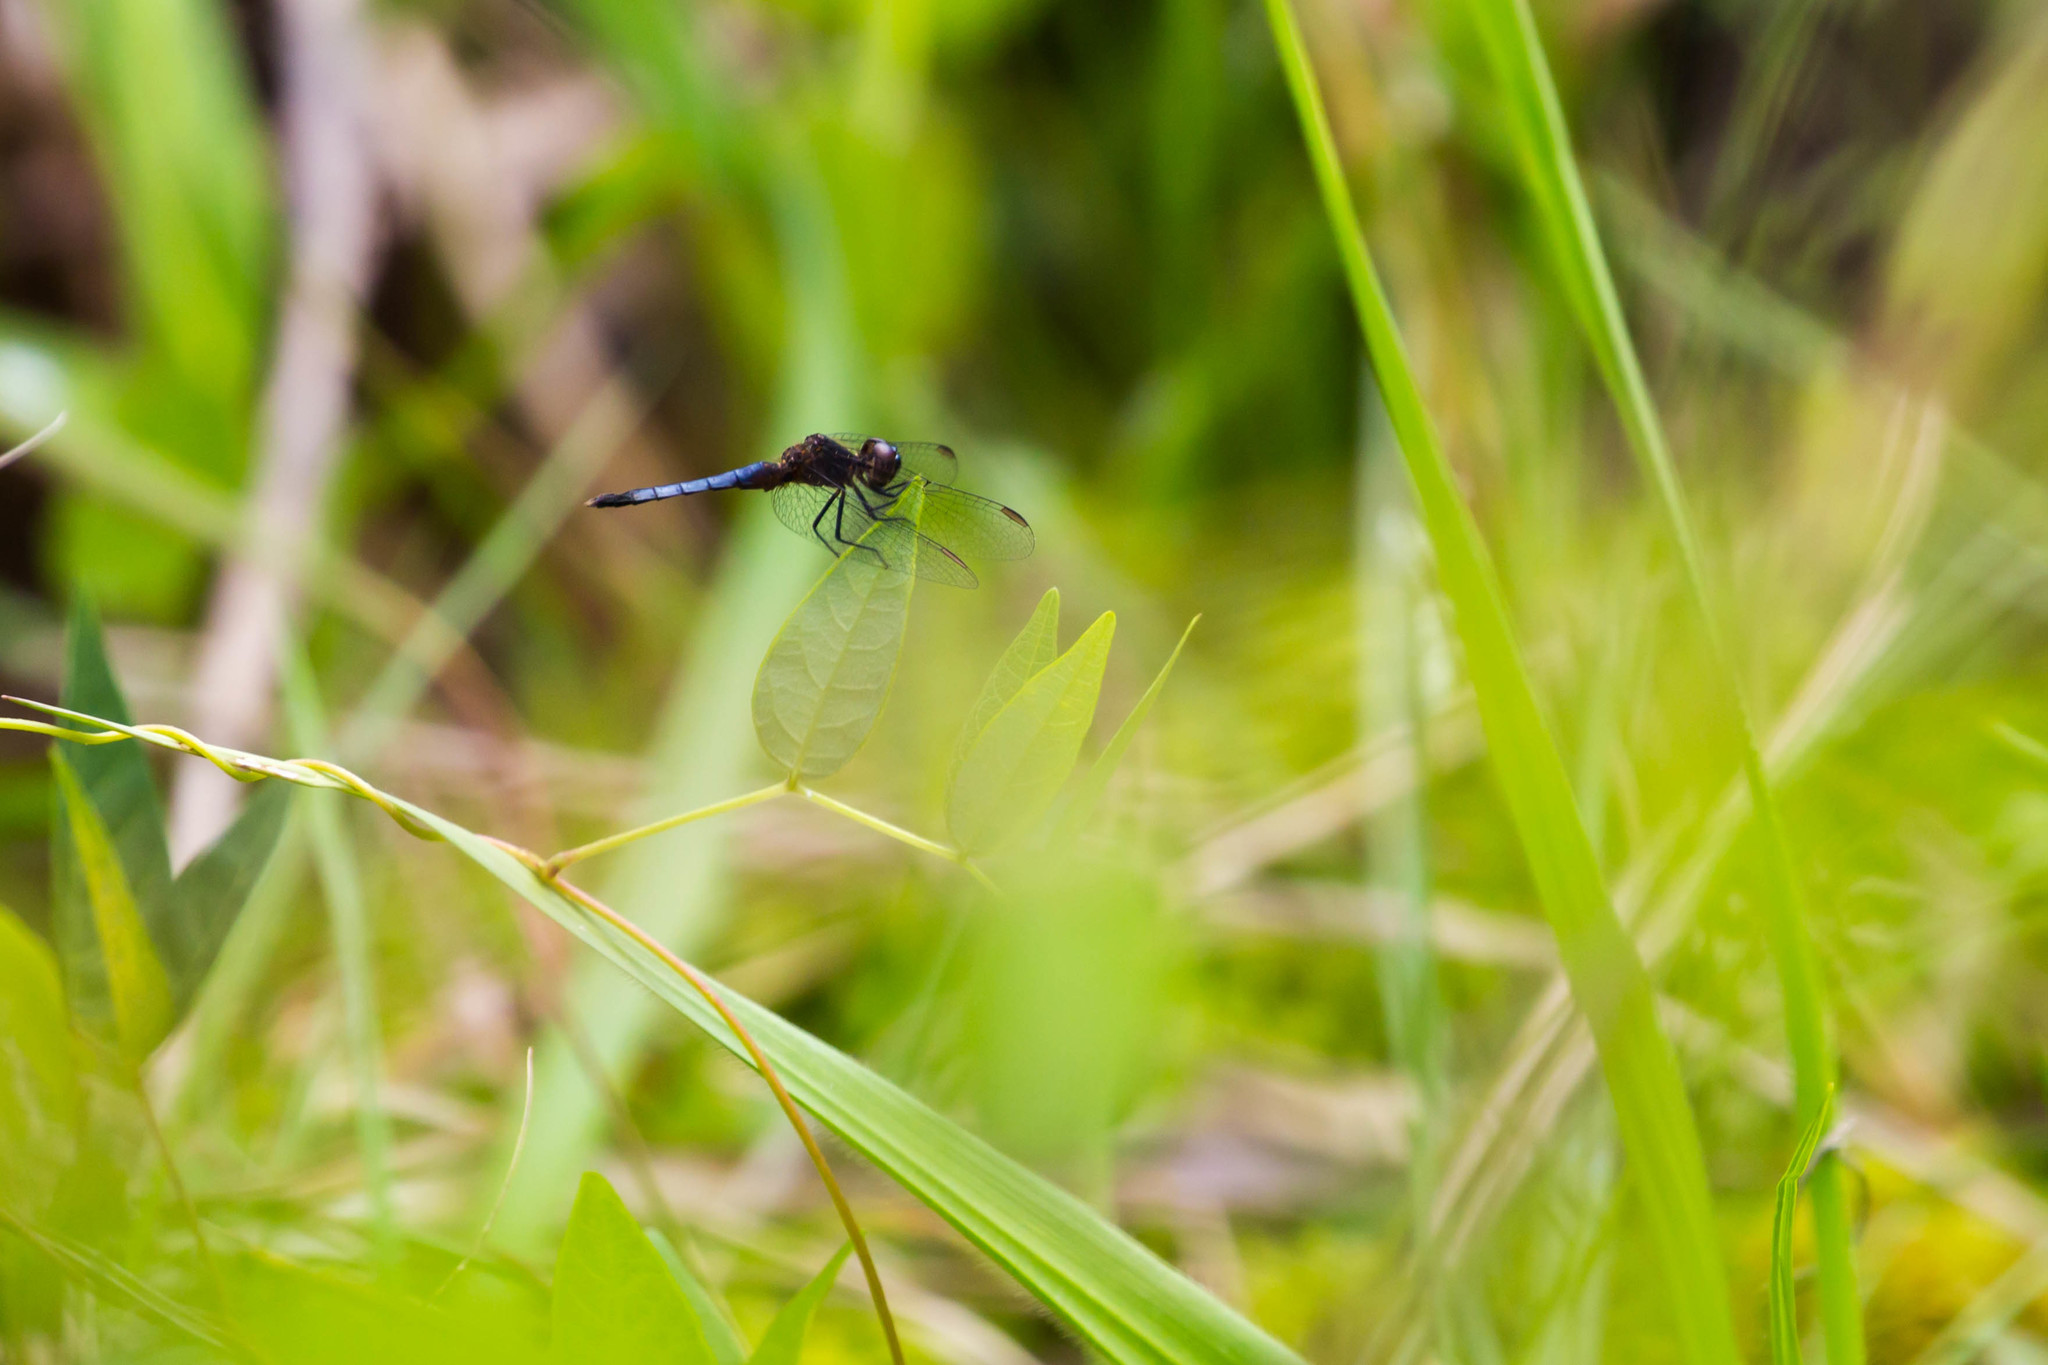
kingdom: Animalia
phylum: Arthropoda
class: Insecta
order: Odonata
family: Libellulidae
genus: Erythrodiplax
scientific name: Erythrodiplax minuscula
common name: Little blue dragonlet
